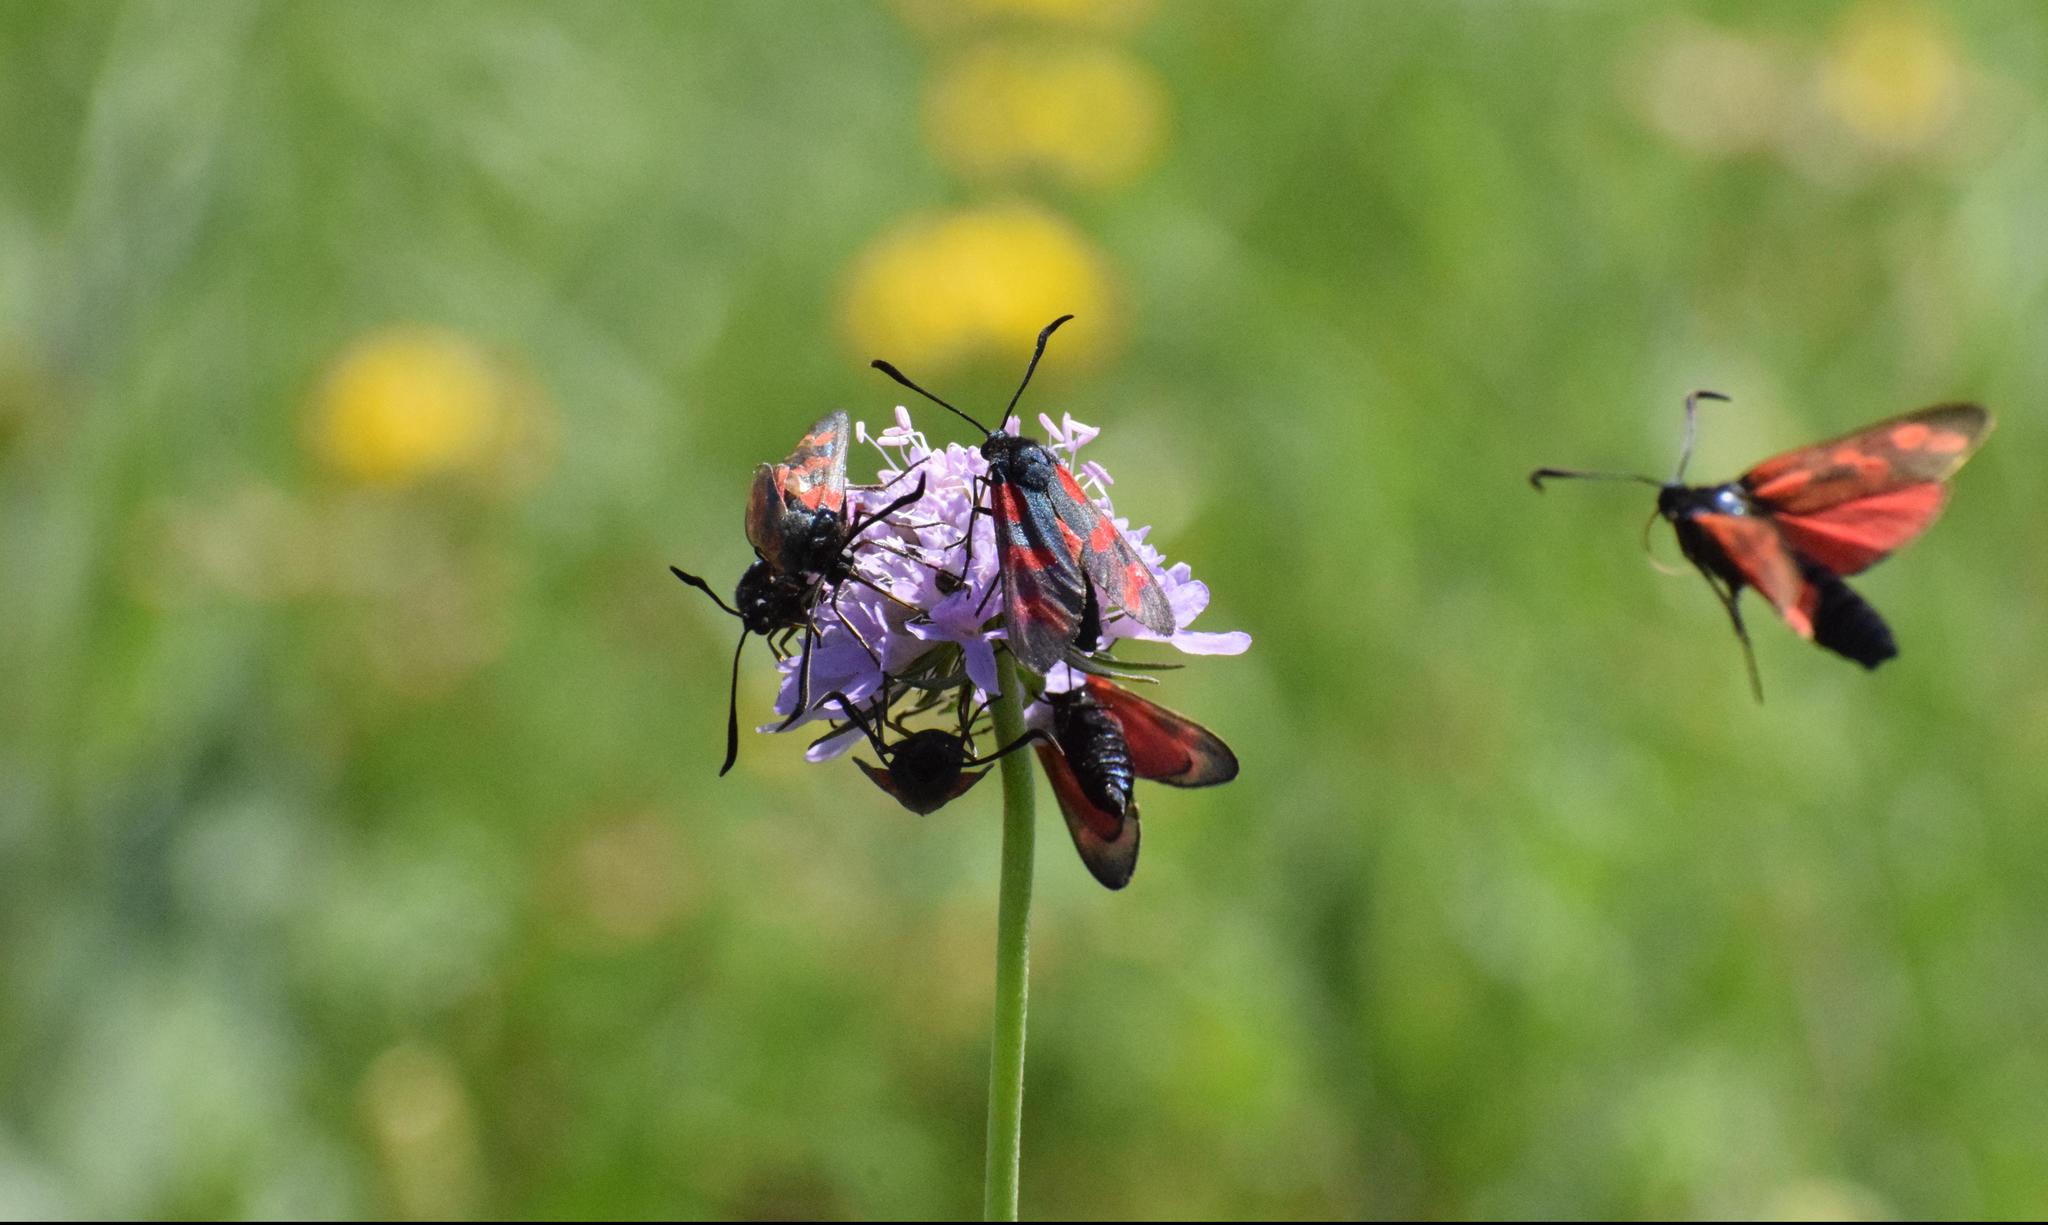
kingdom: Animalia
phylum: Arthropoda
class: Insecta
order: Lepidoptera
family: Zygaenidae
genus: Zygaena
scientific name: Zygaena filipendulae
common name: Six-spot burnet
